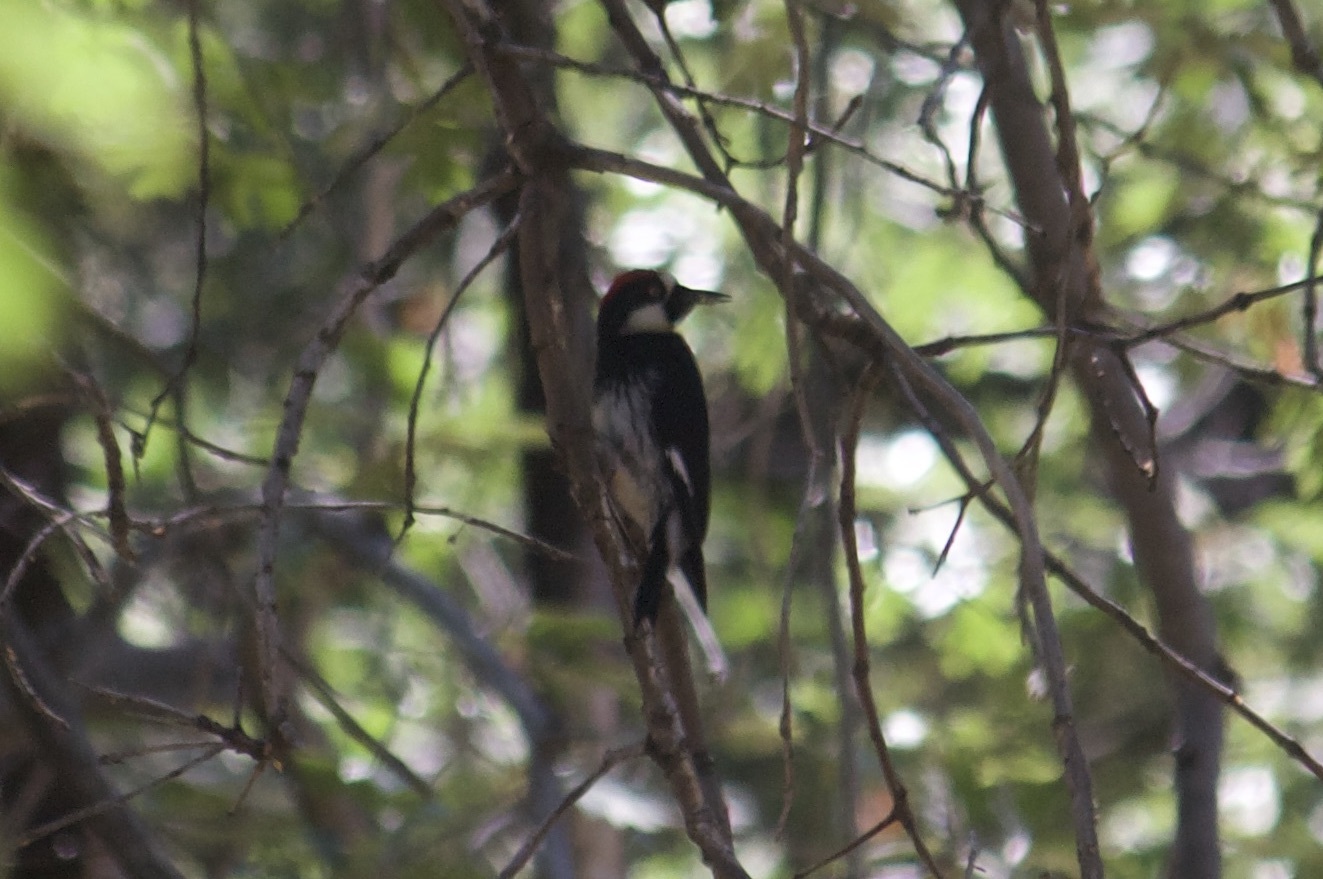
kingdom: Animalia
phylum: Chordata
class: Aves
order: Piciformes
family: Picidae
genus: Melanerpes
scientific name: Melanerpes formicivorus
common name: Acorn woodpecker
